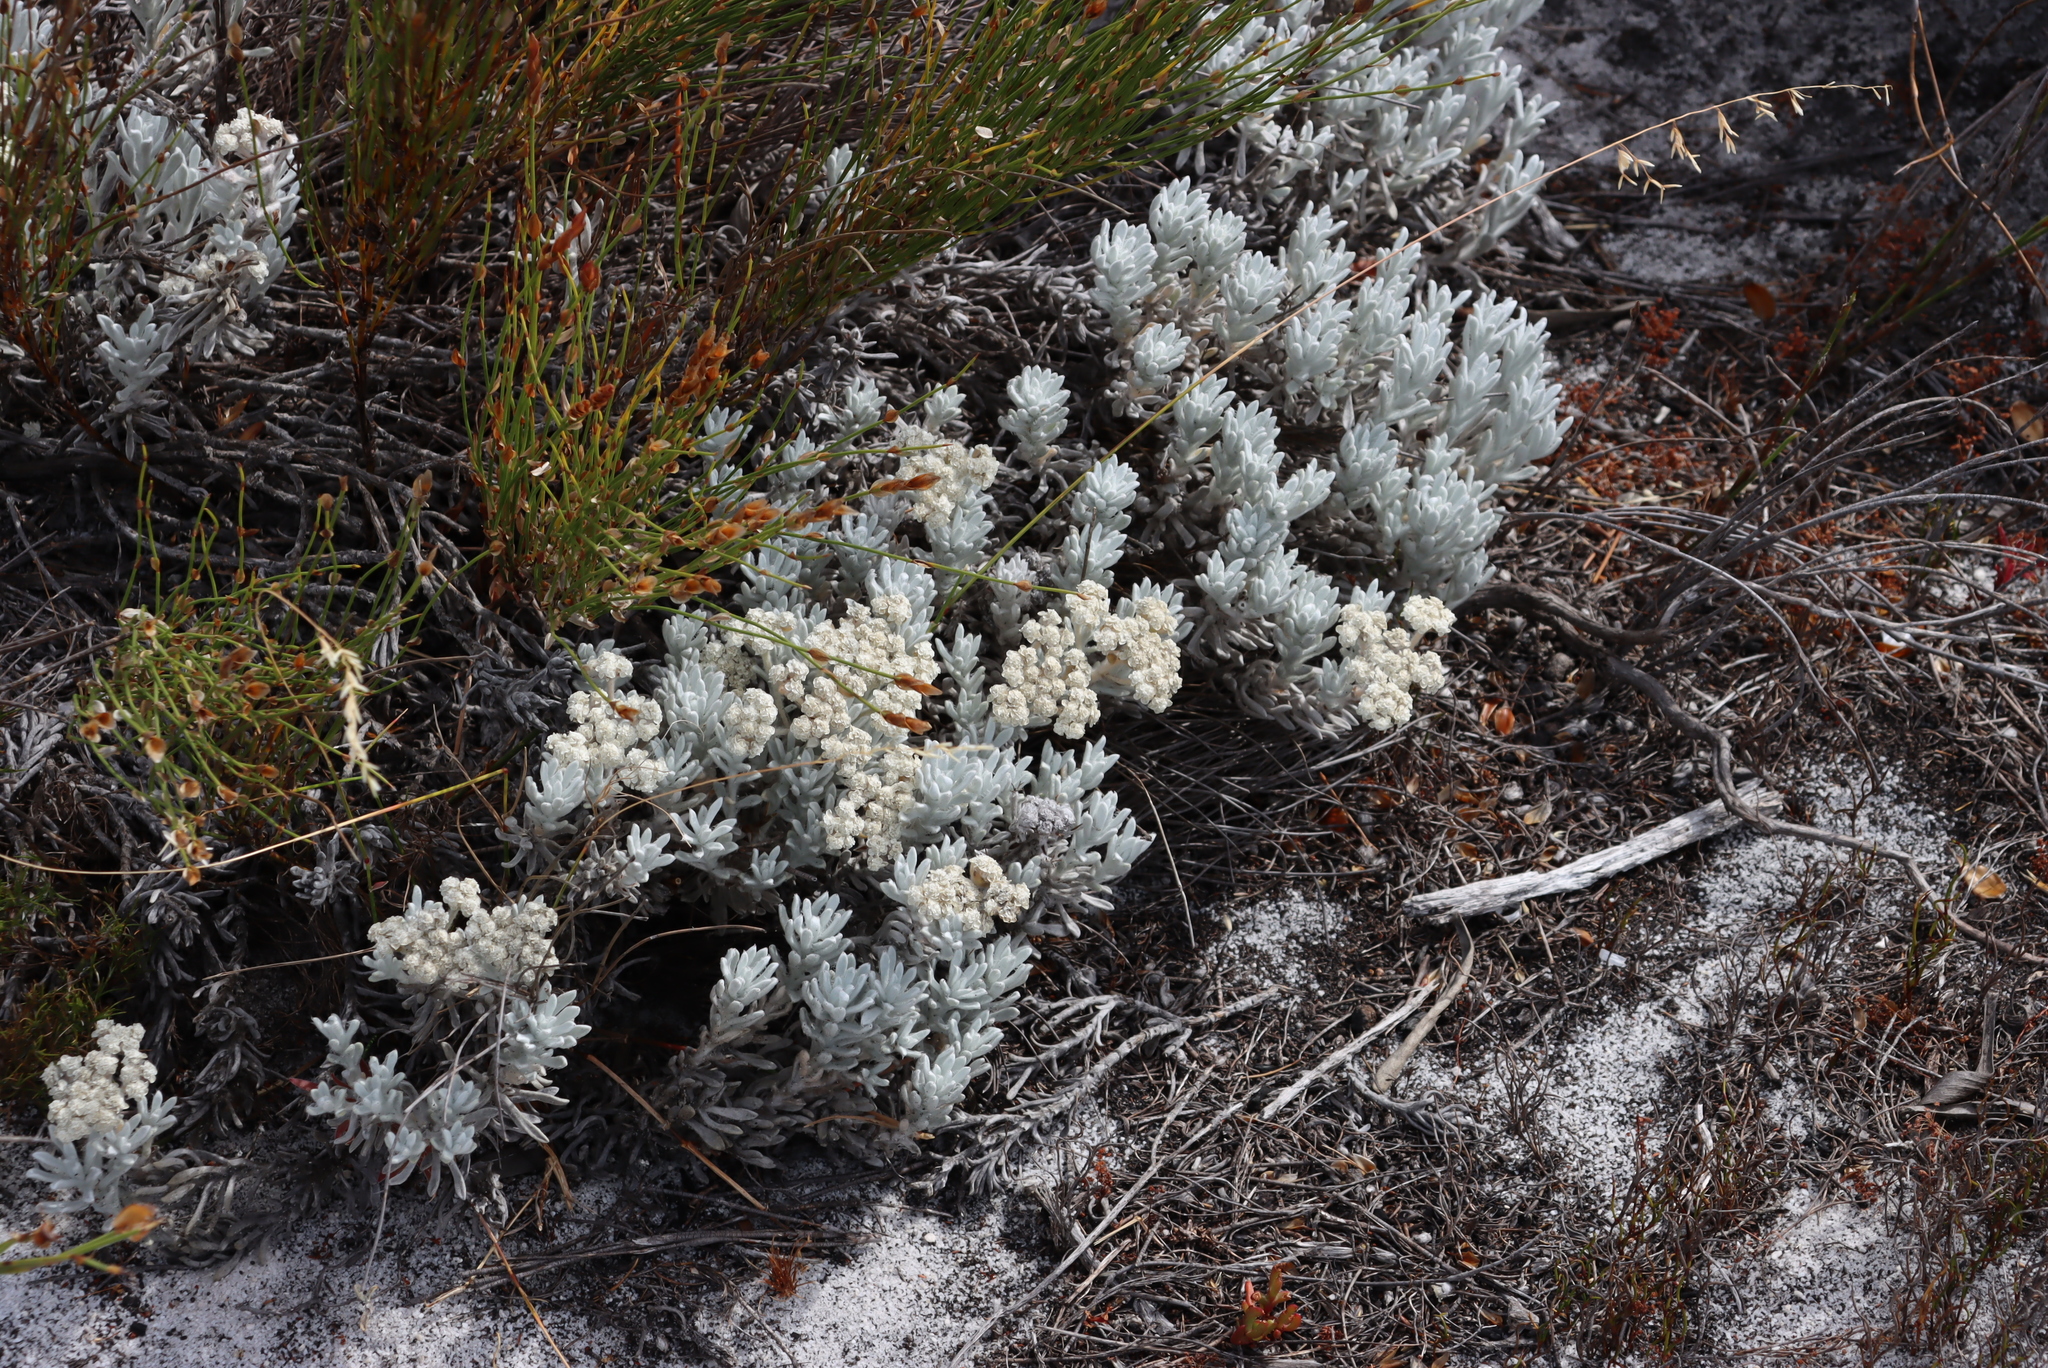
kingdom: Plantae
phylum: Tracheophyta
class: Magnoliopsida
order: Asterales
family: Asteraceae
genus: Petalacte
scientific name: Petalacte coronata
